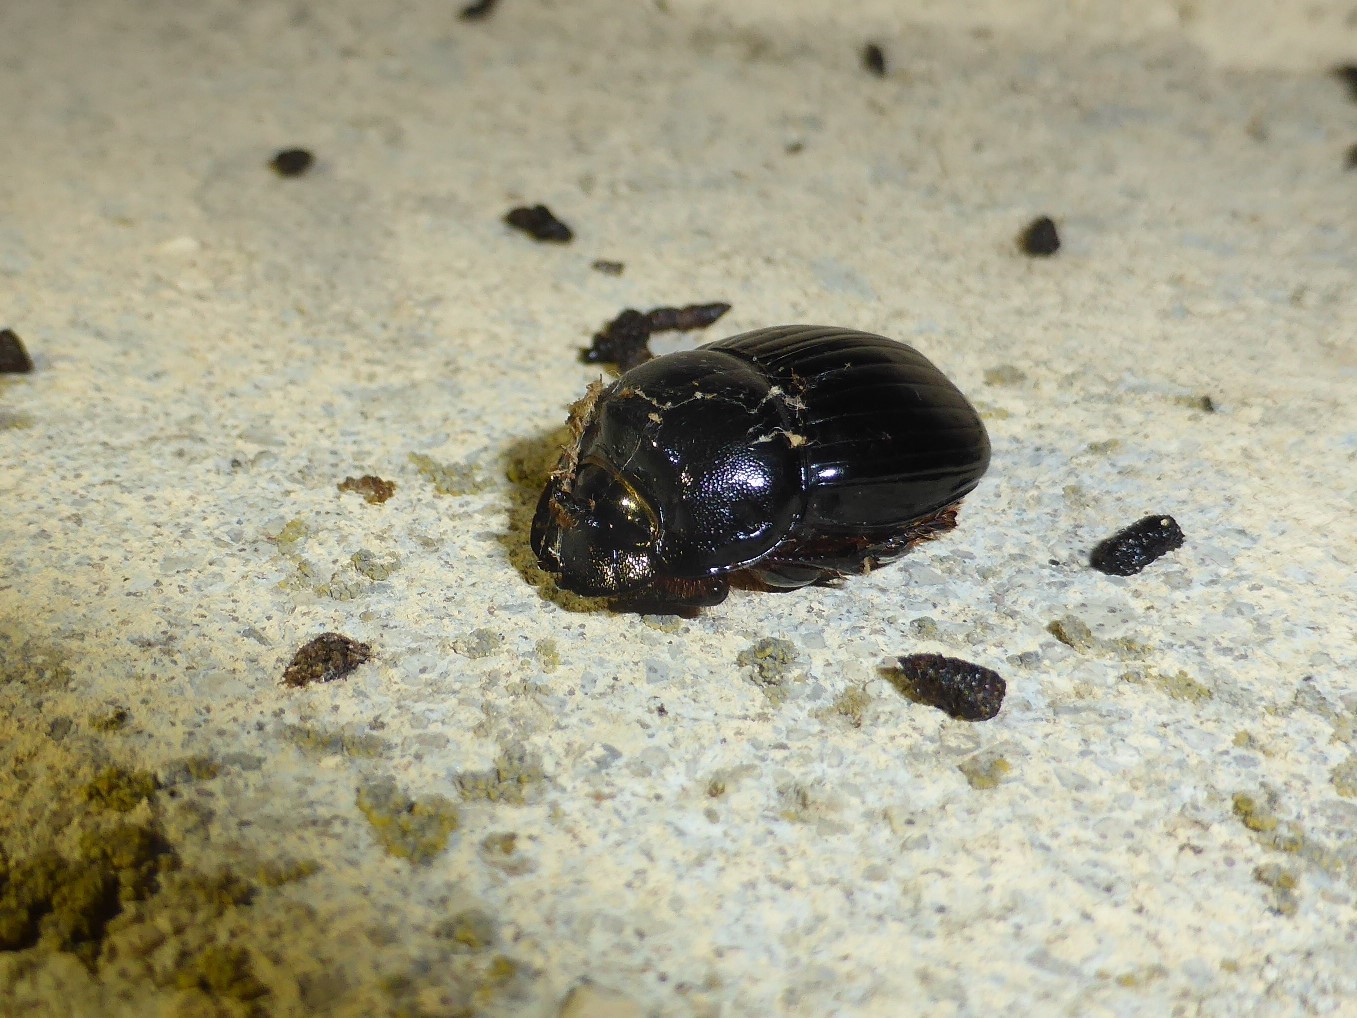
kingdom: Animalia
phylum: Arthropoda
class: Insecta
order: Coleoptera
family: Scarabaeidae
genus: Copris
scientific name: Copris lunaris
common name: Horned dung beetle
